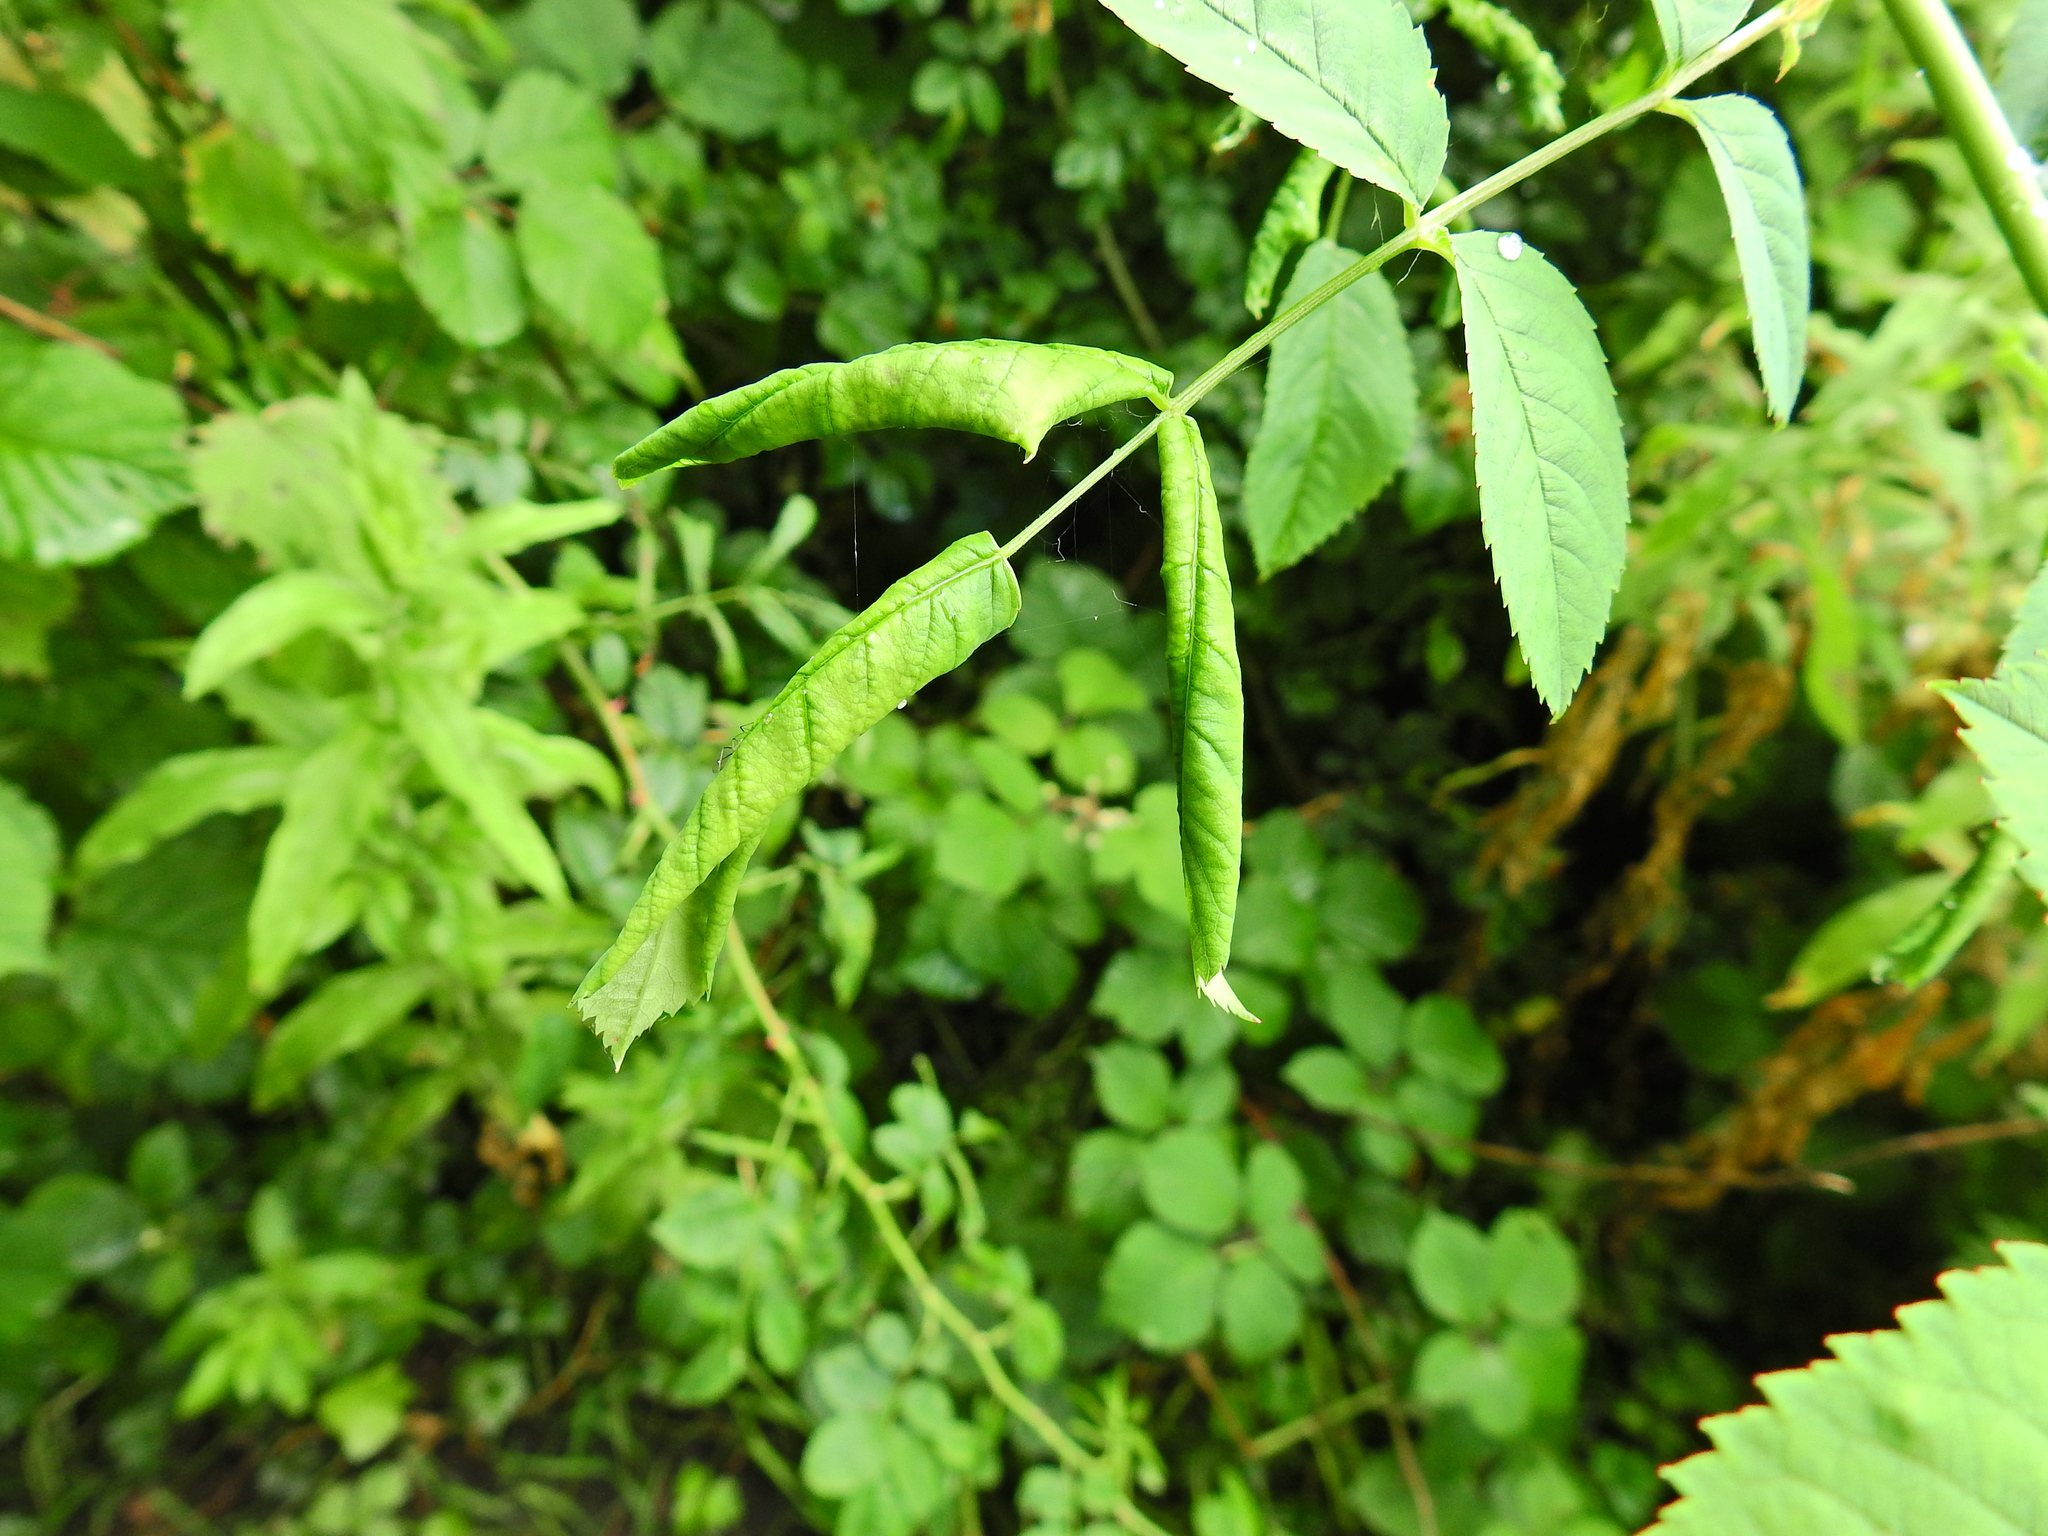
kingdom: Animalia
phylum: Arthropoda
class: Insecta
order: Hymenoptera
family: Tenthredinidae
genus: Blennocampa
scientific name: Blennocampa phyllocolpa
